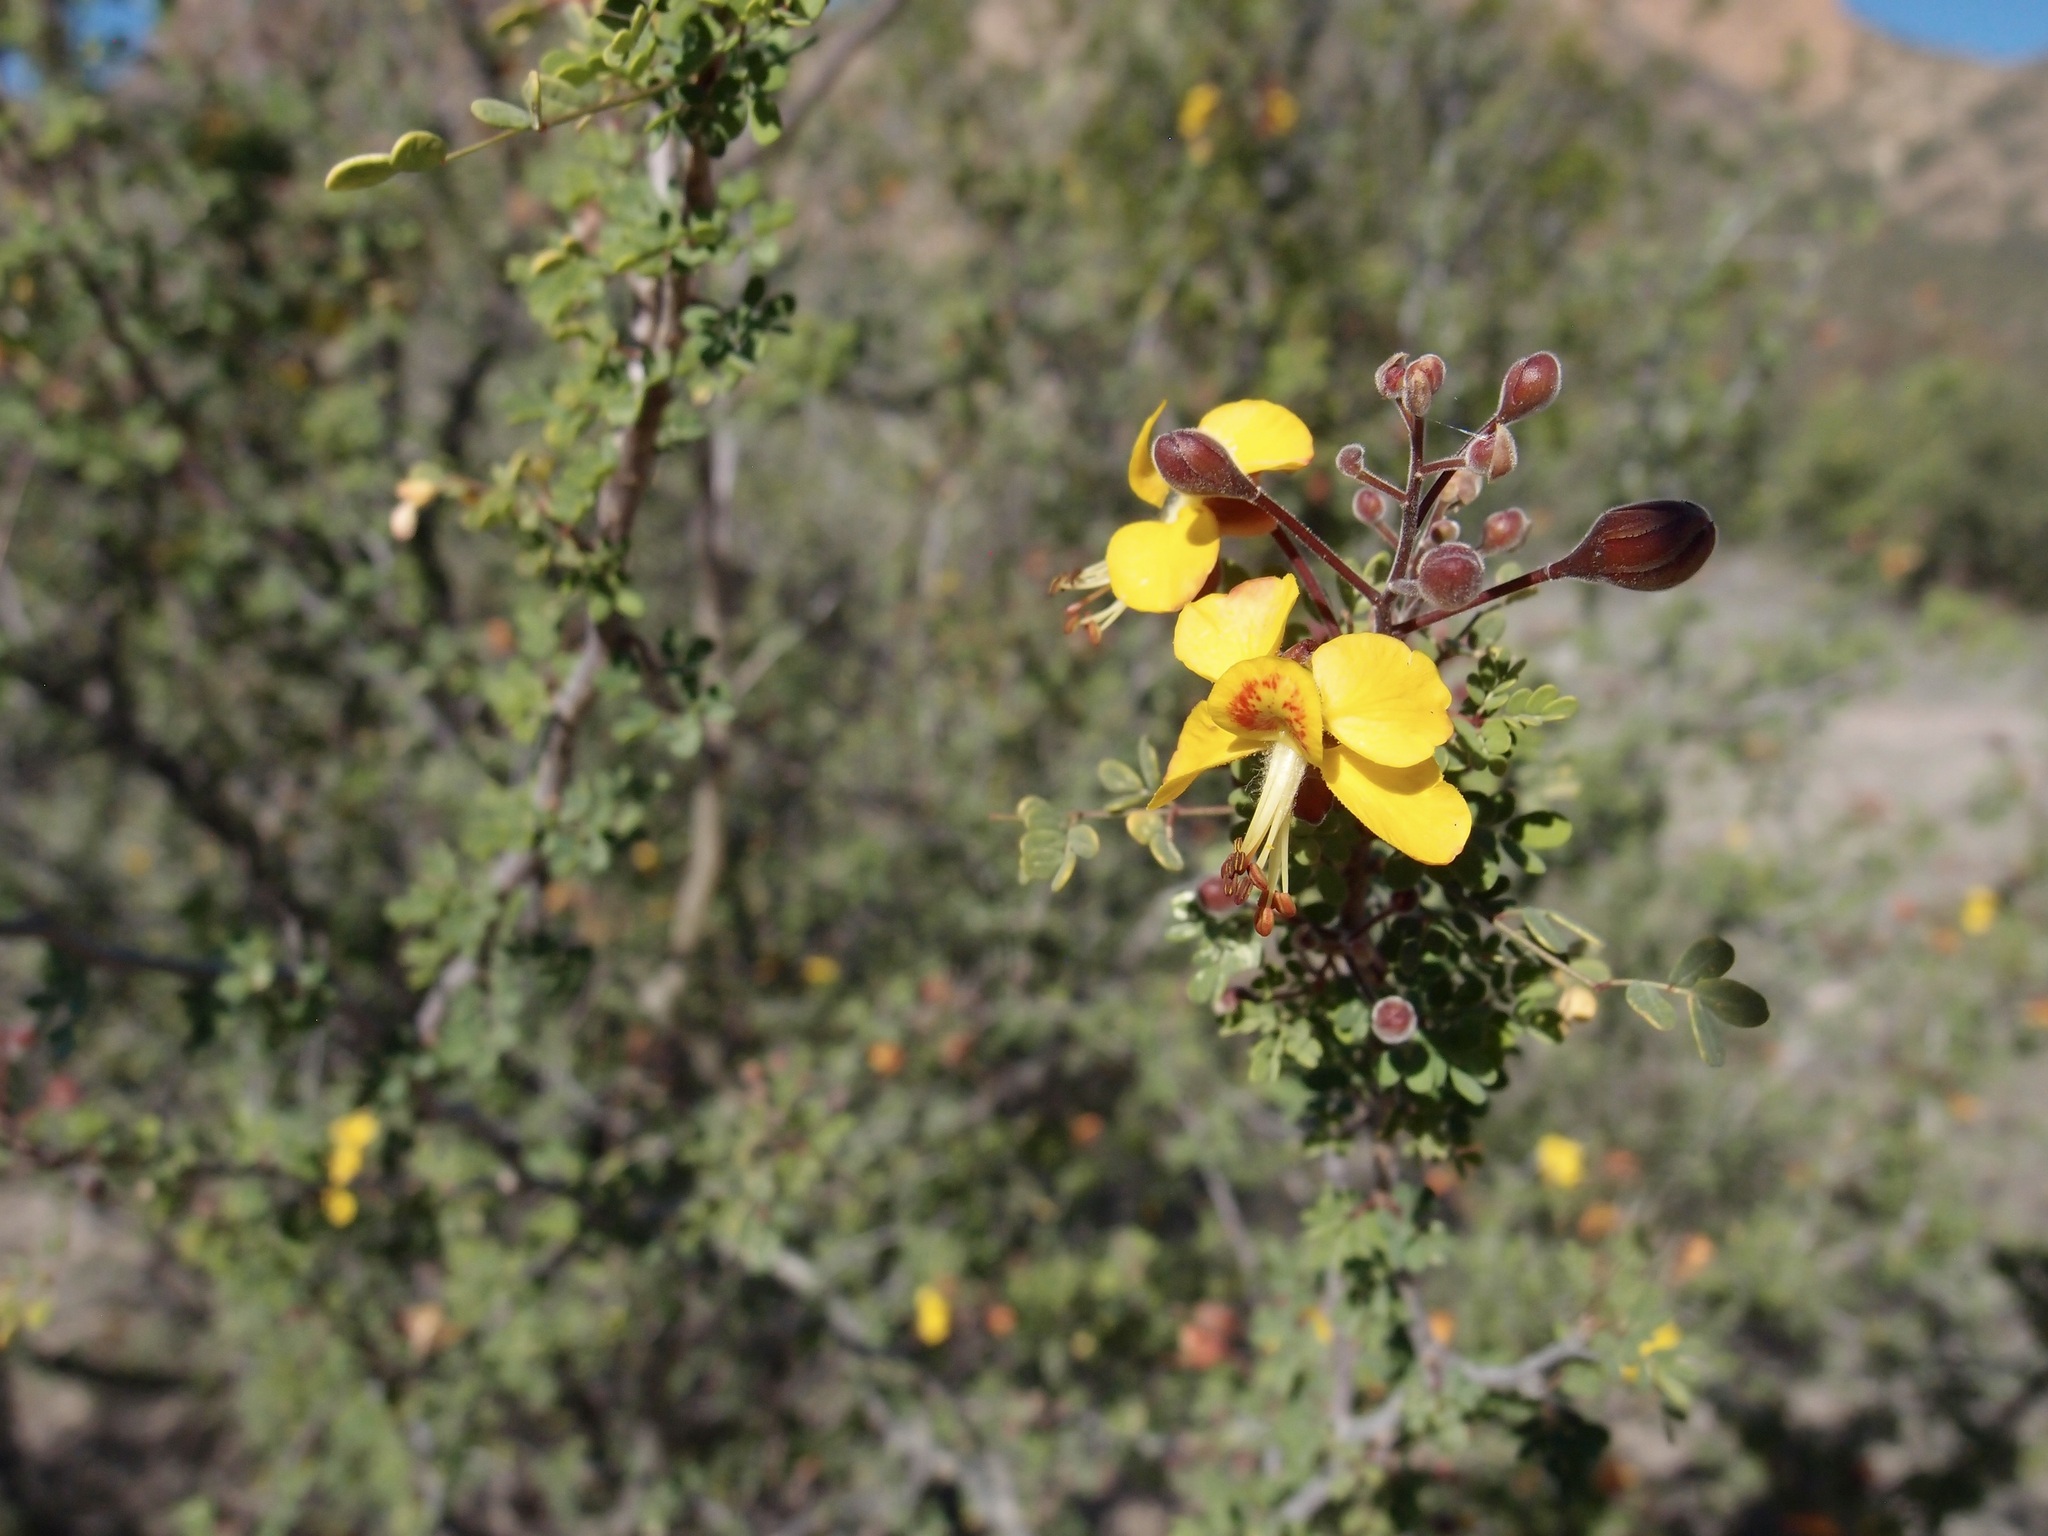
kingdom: Plantae
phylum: Tracheophyta
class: Magnoliopsida
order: Fabales
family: Fabaceae
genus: Erythrostemon
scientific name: Erythrostemon palmeri
